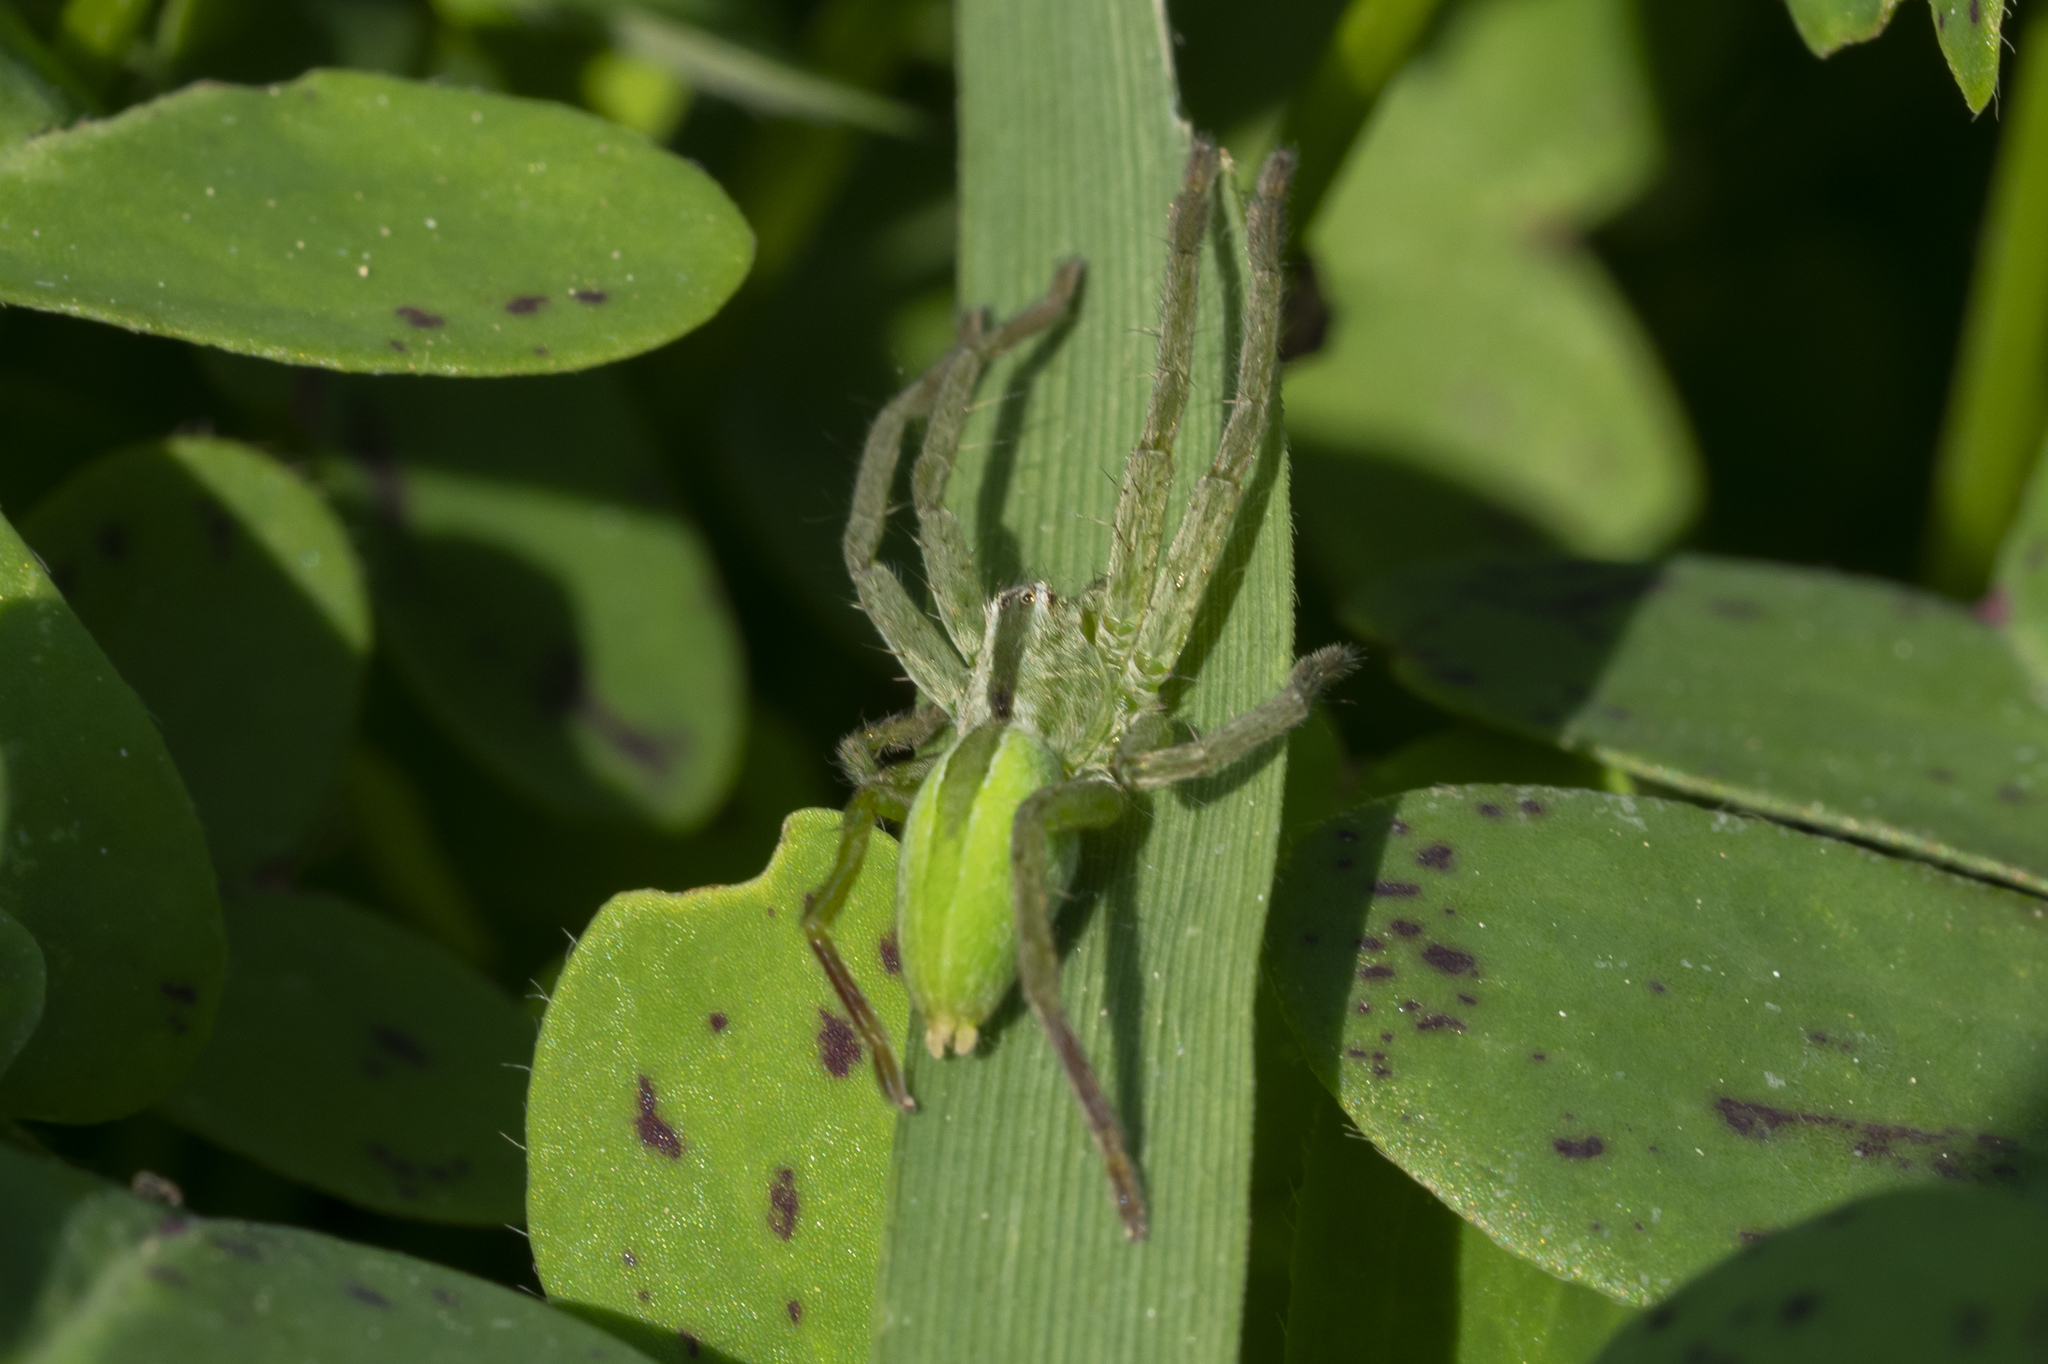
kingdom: Animalia
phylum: Arthropoda
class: Arachnida
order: Araneae
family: Sparassidae
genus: Micrommata
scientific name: Micrommata ligurina
